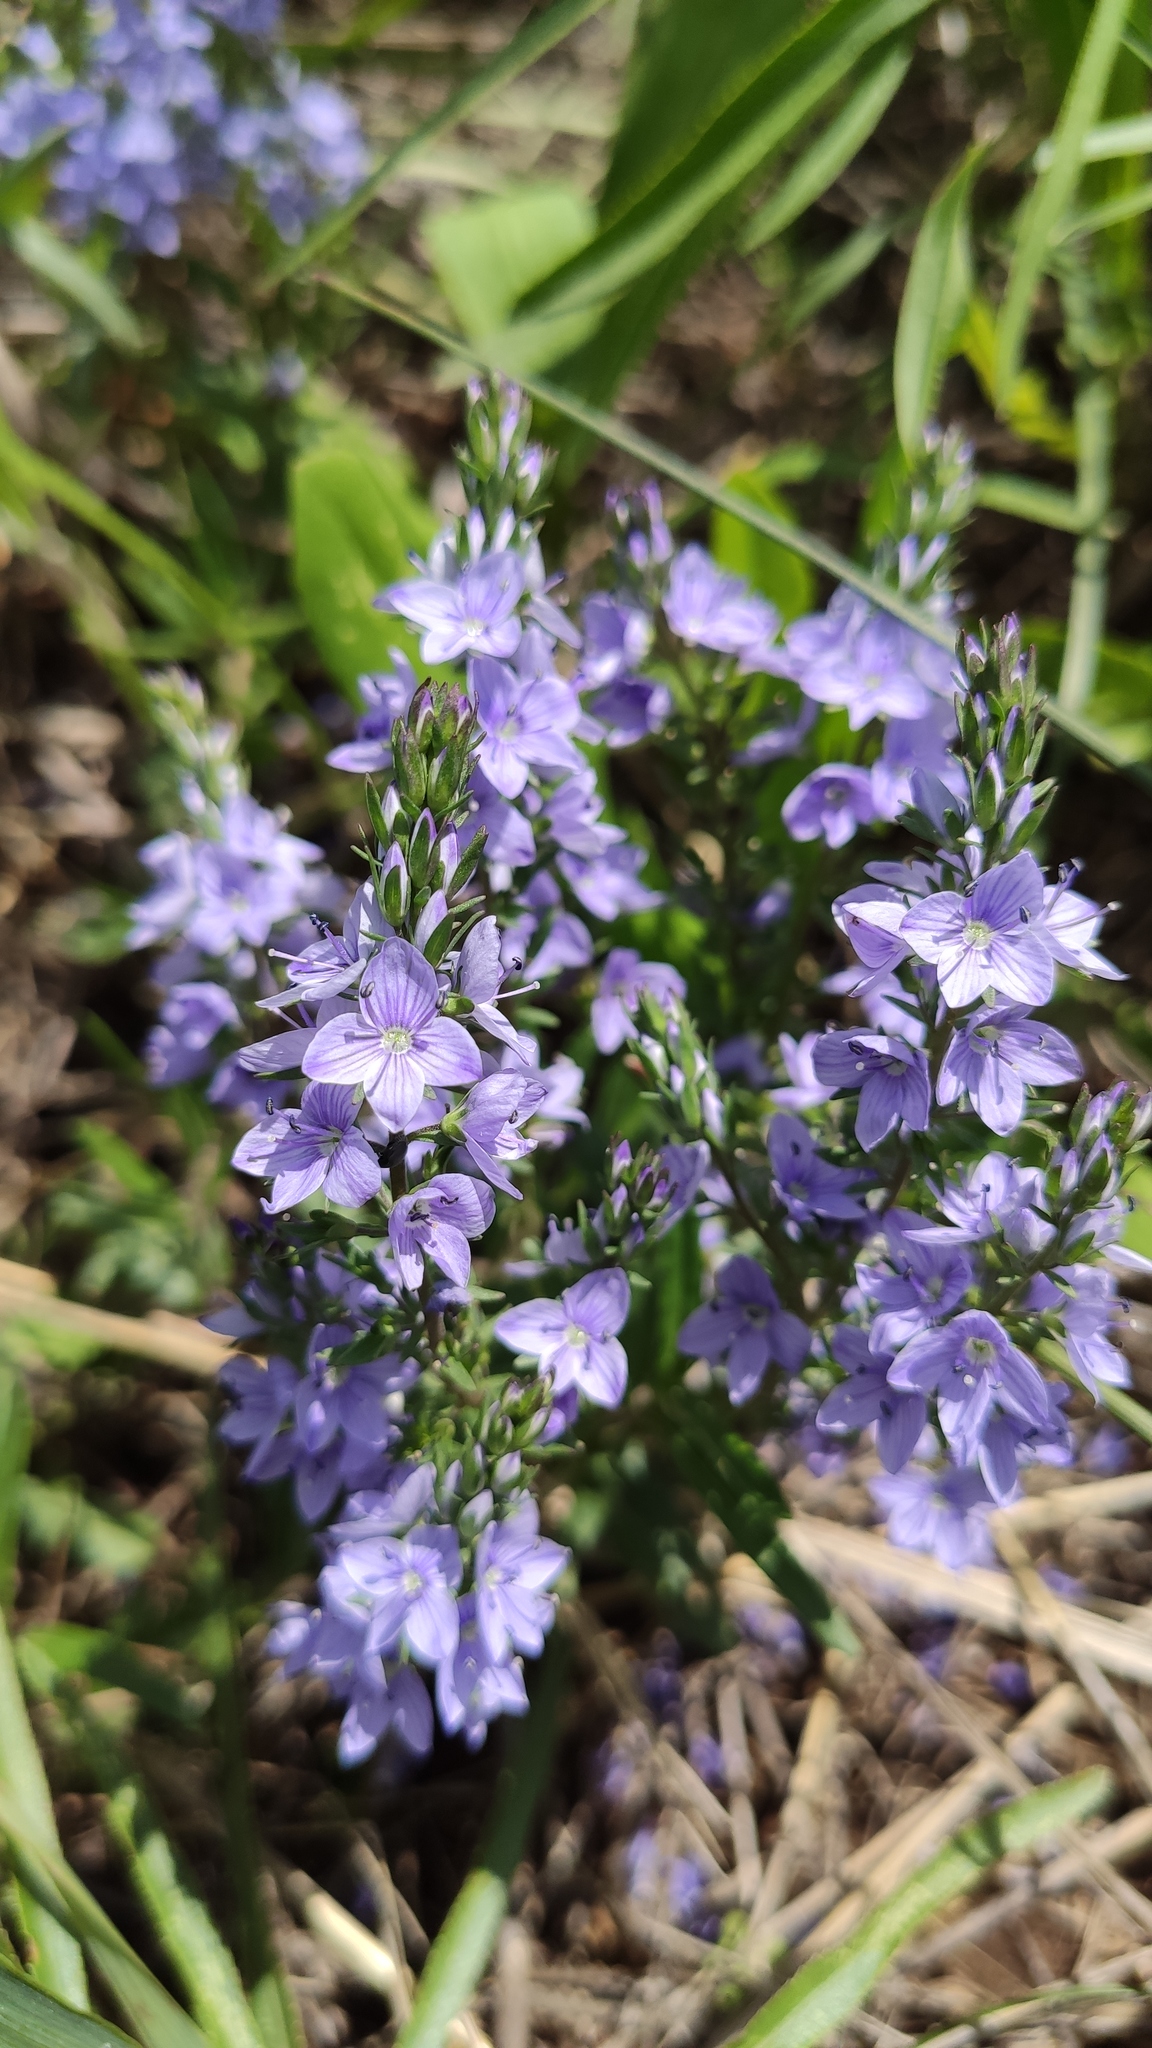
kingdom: Plantae
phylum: Tracheophyta
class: Magnoliopsida
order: Lamiales
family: Plantaginaceae
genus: Veronica
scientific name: Veronica prostrata
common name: Prostrate speedwell
